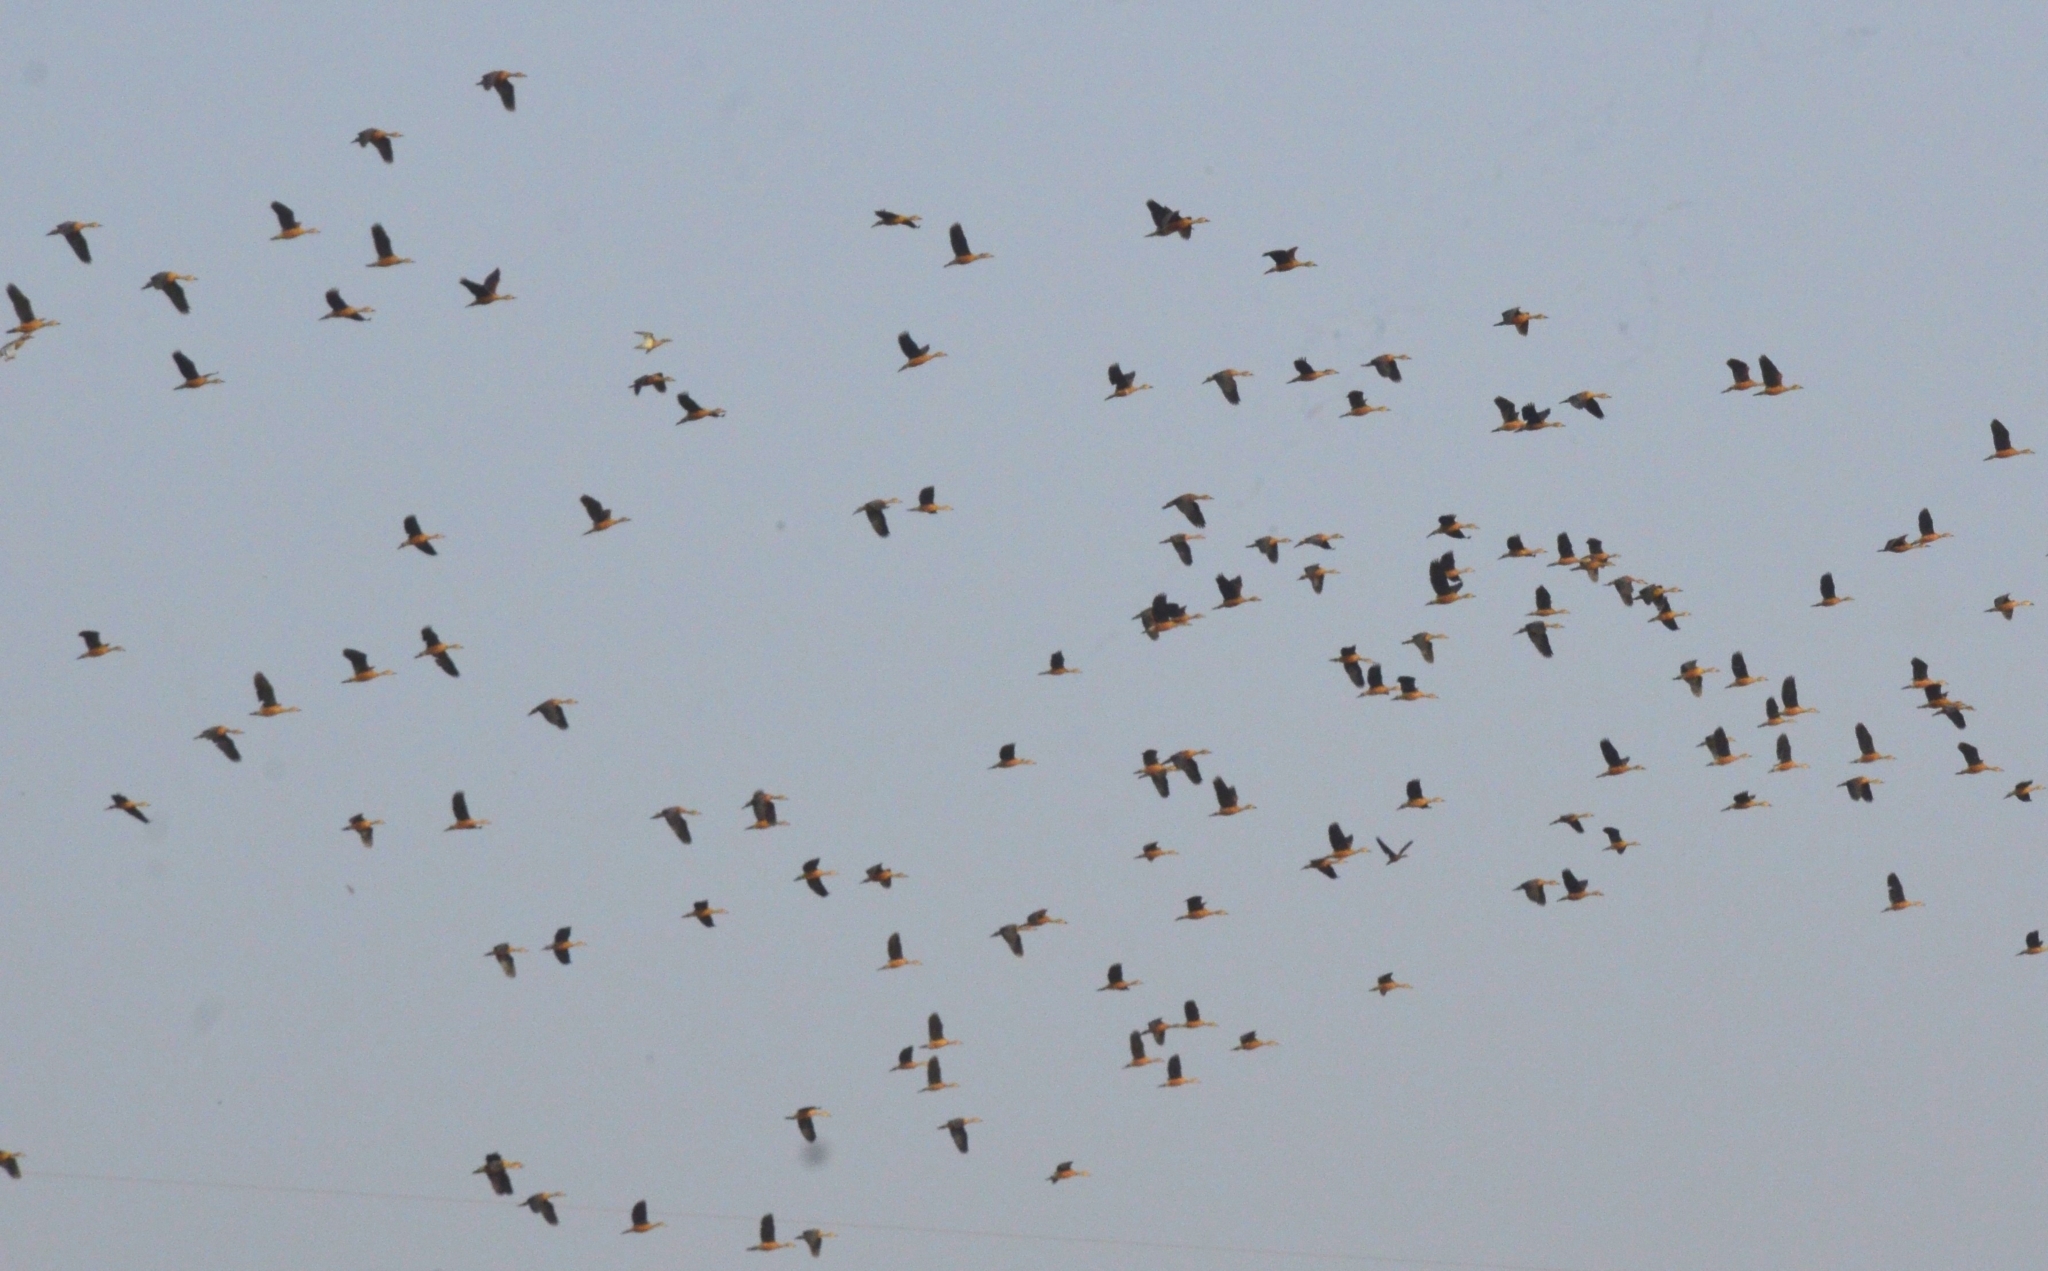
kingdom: Animalia
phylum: Chordata
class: Aves
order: Anseriformes
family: Anatidae
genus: Dendrocygna
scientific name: Dendrocygna javanica
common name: Lesser whistling-duck
